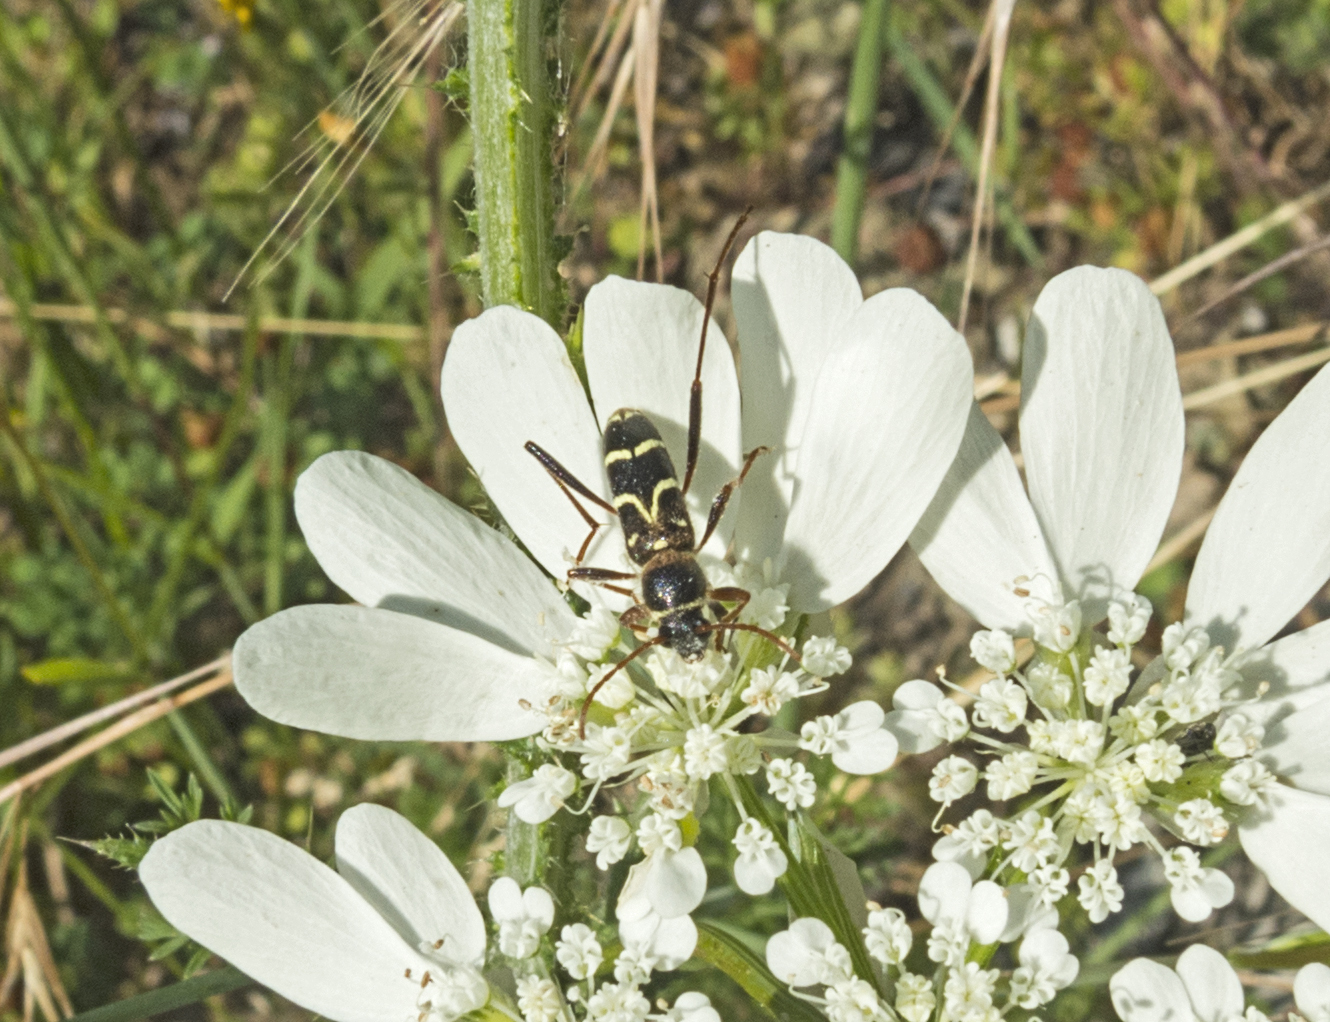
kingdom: Animalia
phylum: Arthropoda
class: Insecta
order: Coleoptera
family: Cerambycidae
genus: Clytus
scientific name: Clytus rhamni
